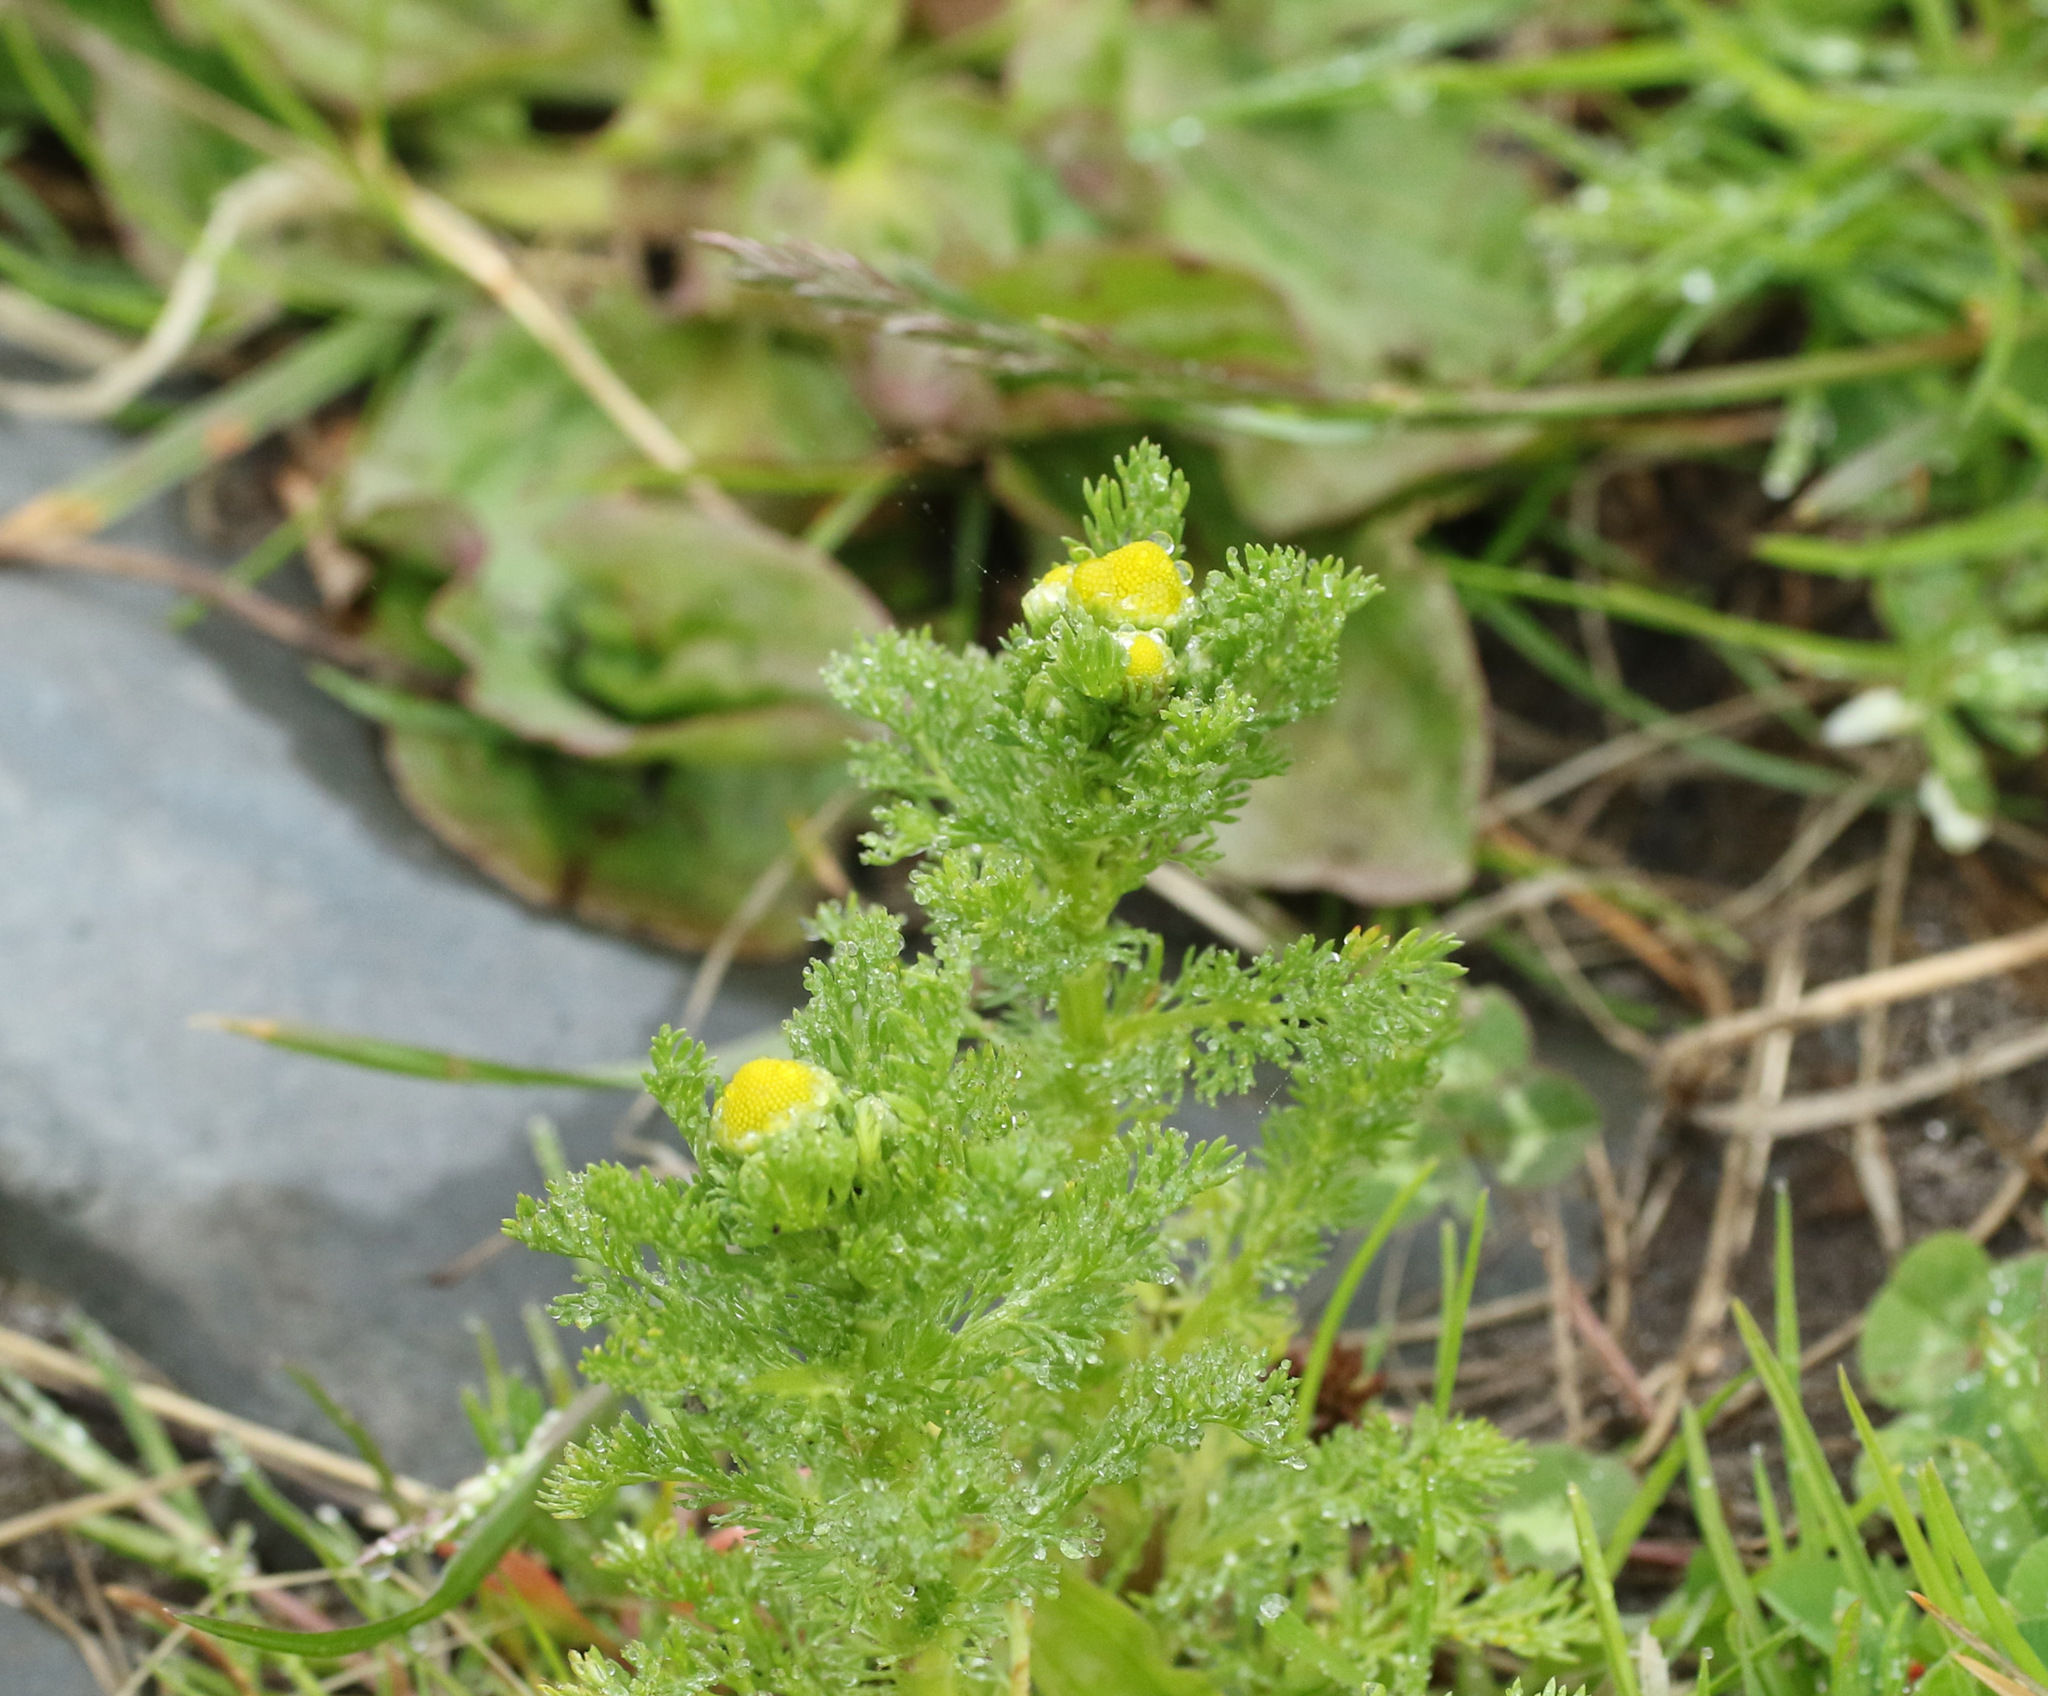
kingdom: Plantae
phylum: Tracheophyta
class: Magnoliopsida
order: Asterales
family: Asteraceae
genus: Matricaria
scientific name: Matricaria discoidea
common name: Disc mayweed
